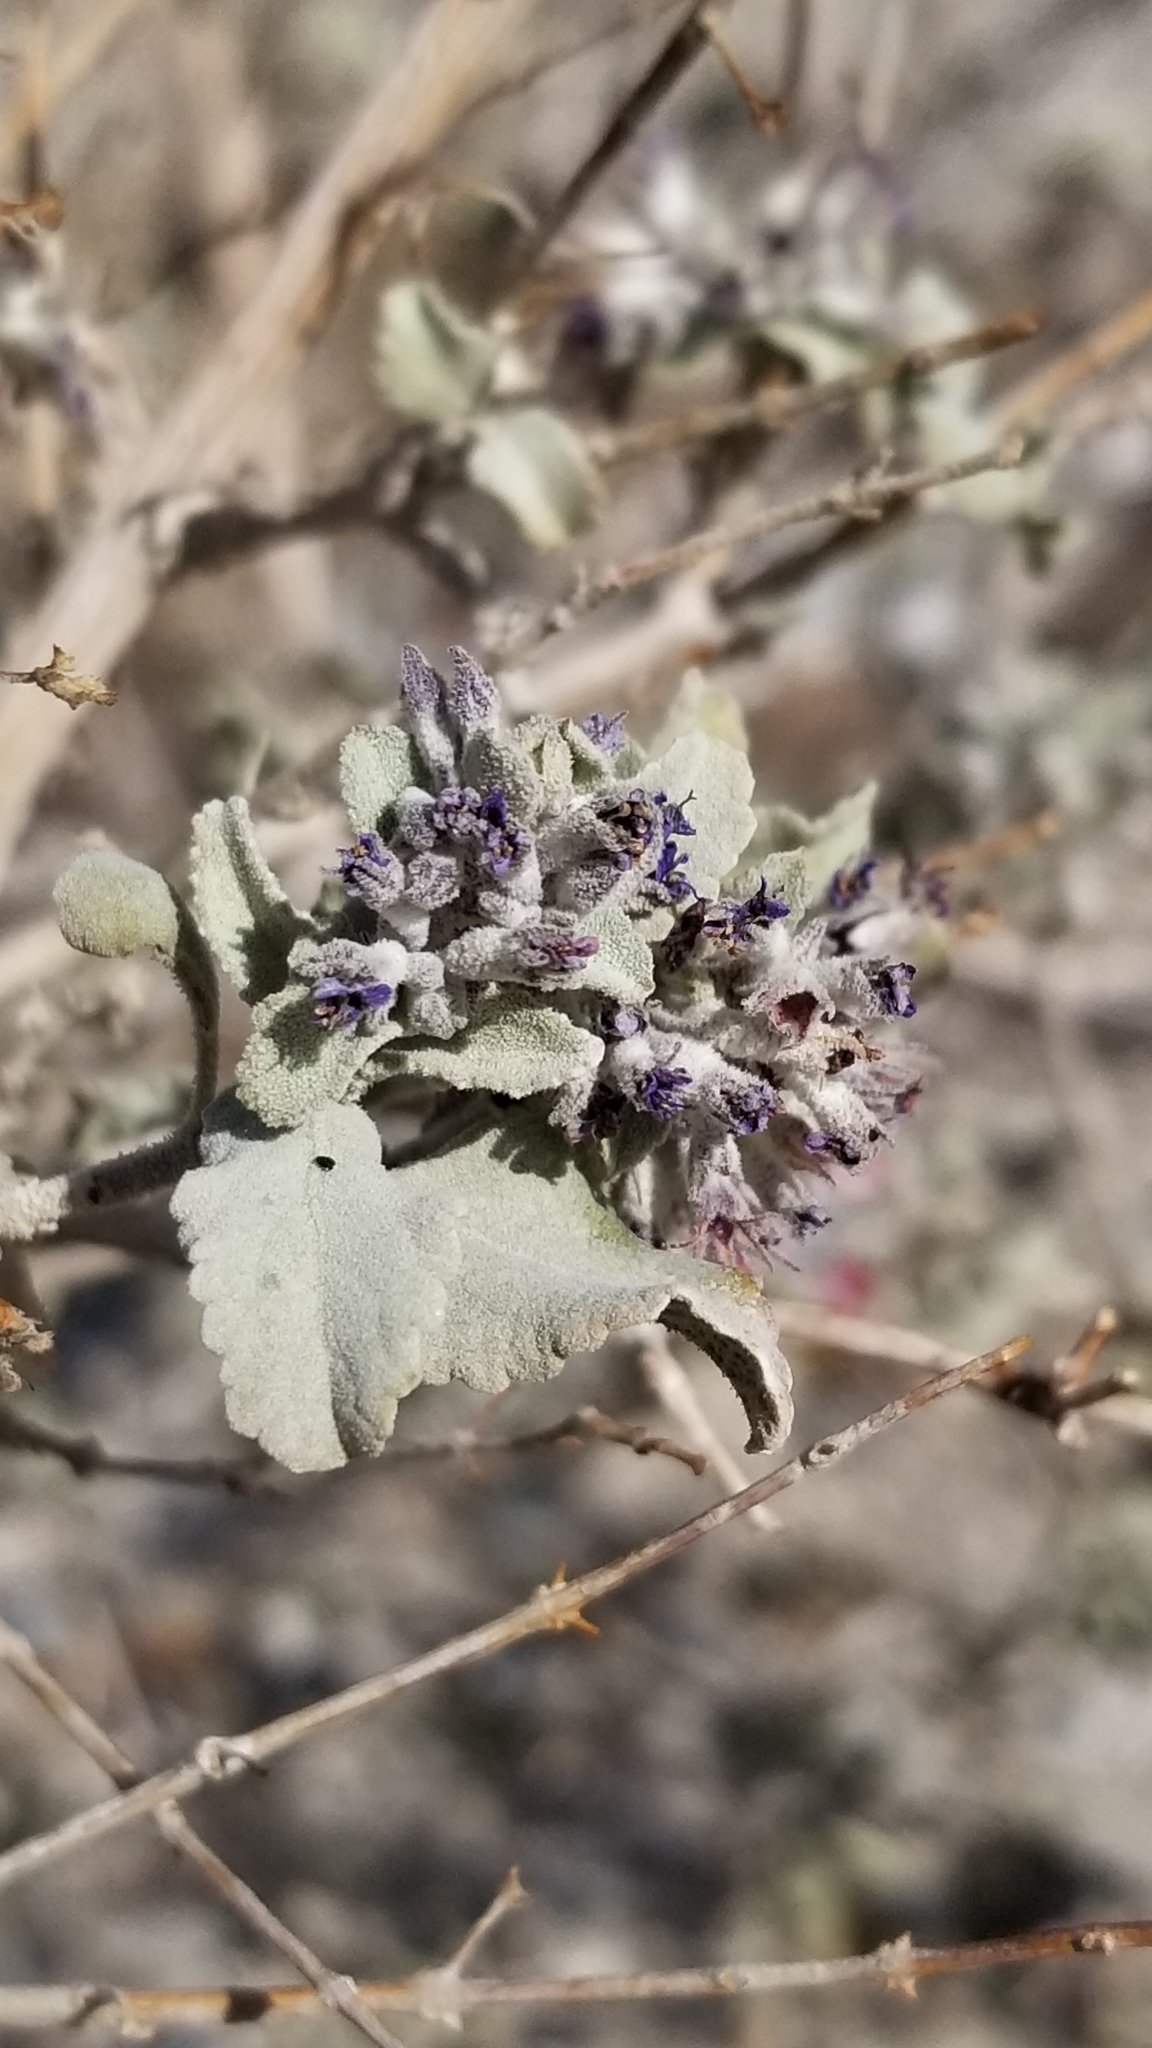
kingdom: Plantae
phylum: Tracheophyta
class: Magnoliopsida
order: Lamiales
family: Lamiaceae
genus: Condea
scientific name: Condea emoryi
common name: Chia
